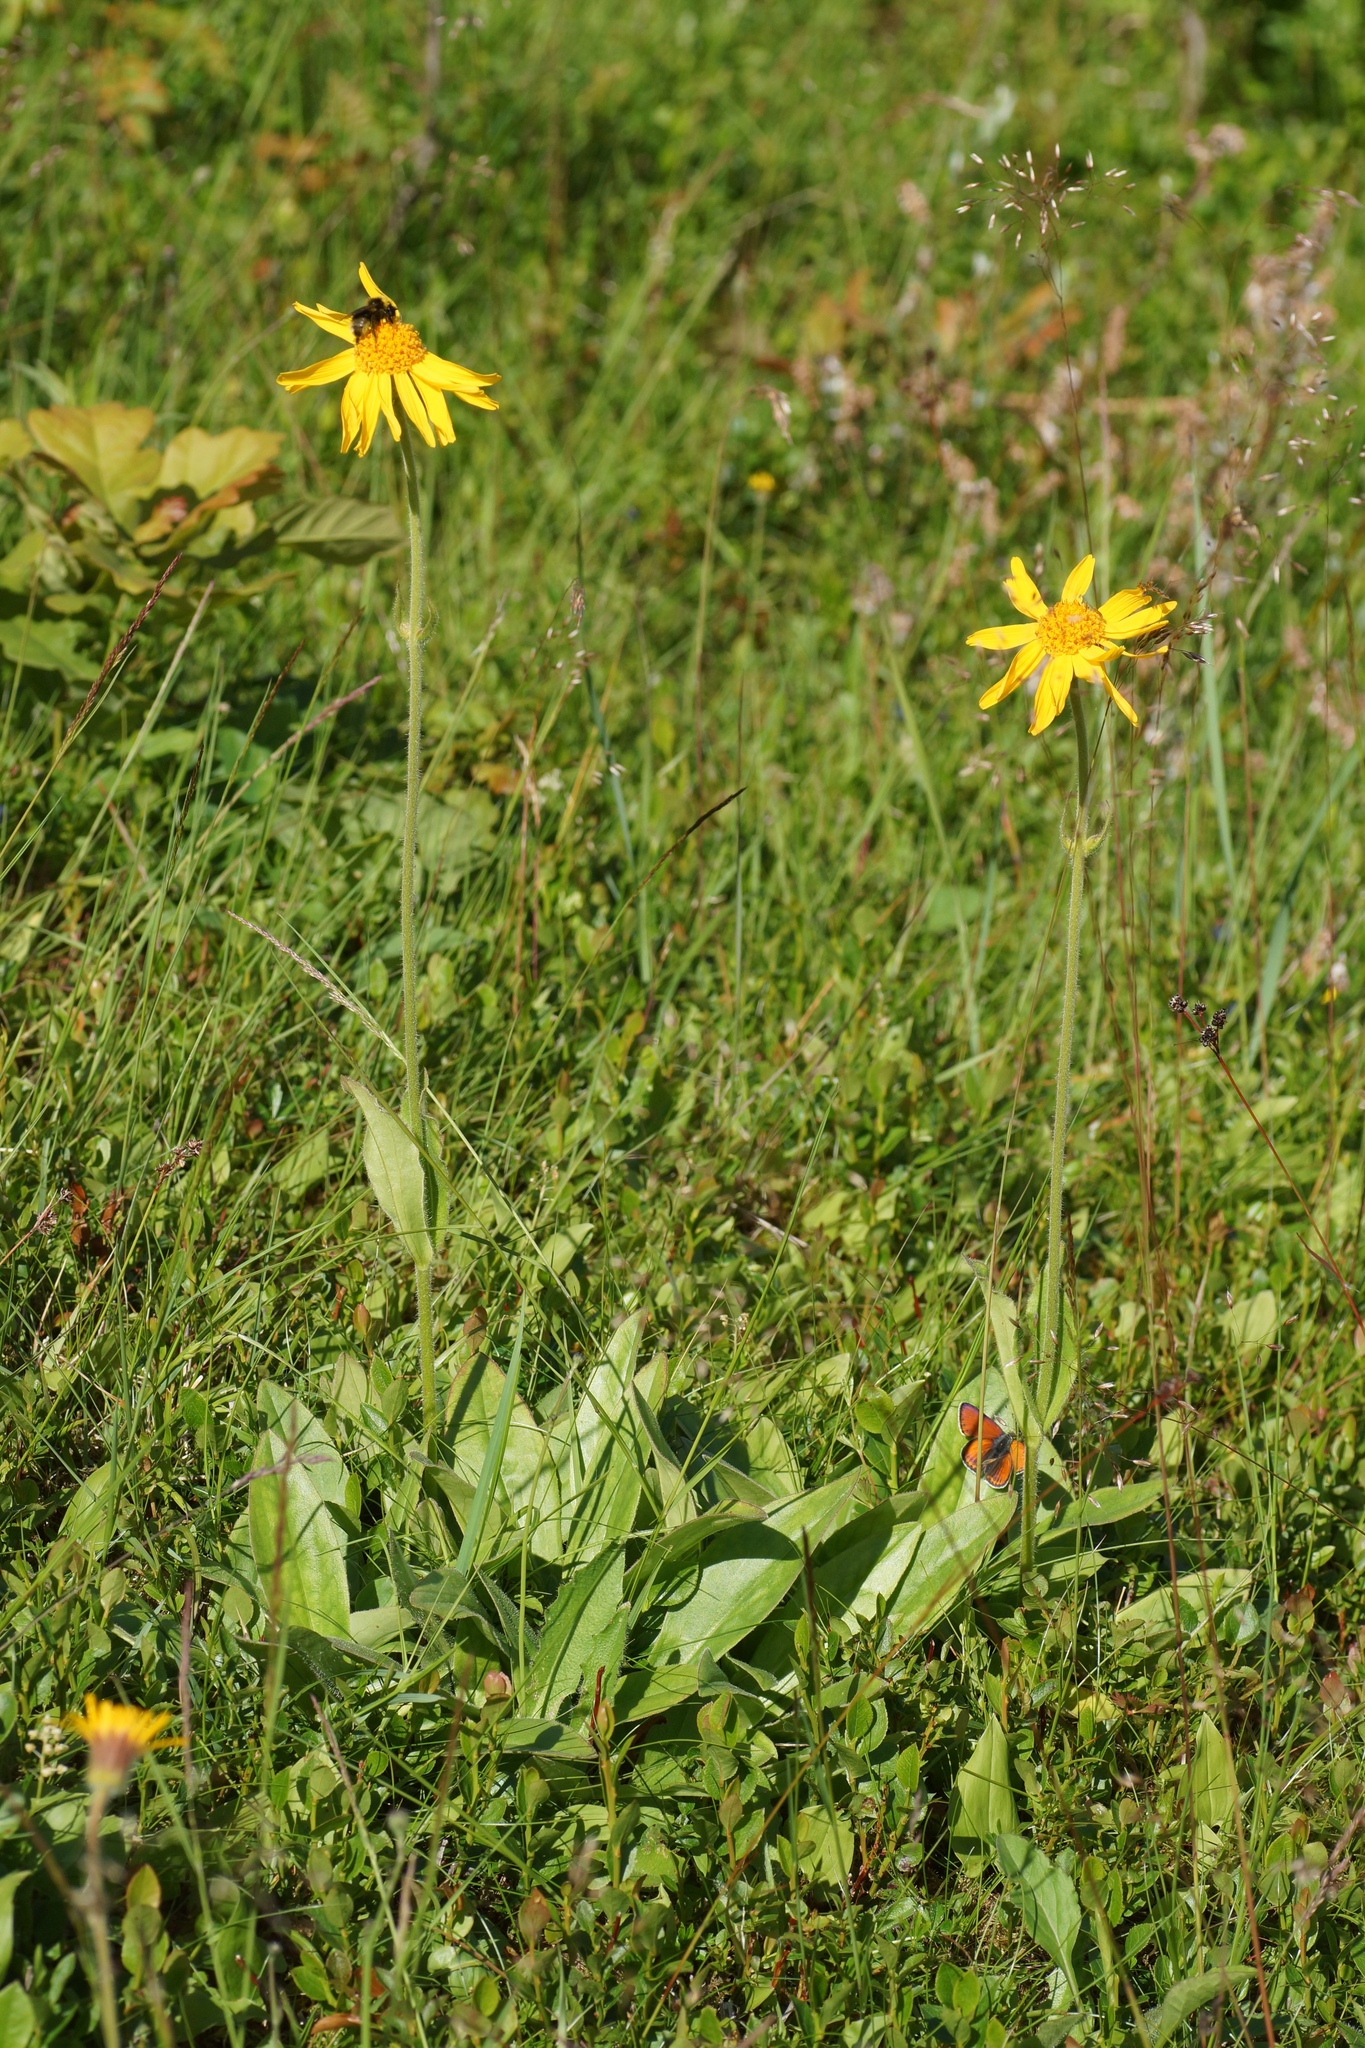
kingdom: Plantae
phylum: Tracheophyta
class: Magnoliopsida
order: Asterales
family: Asteraceae
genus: Arnica
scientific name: Arnica montana
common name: Leopard's bane
